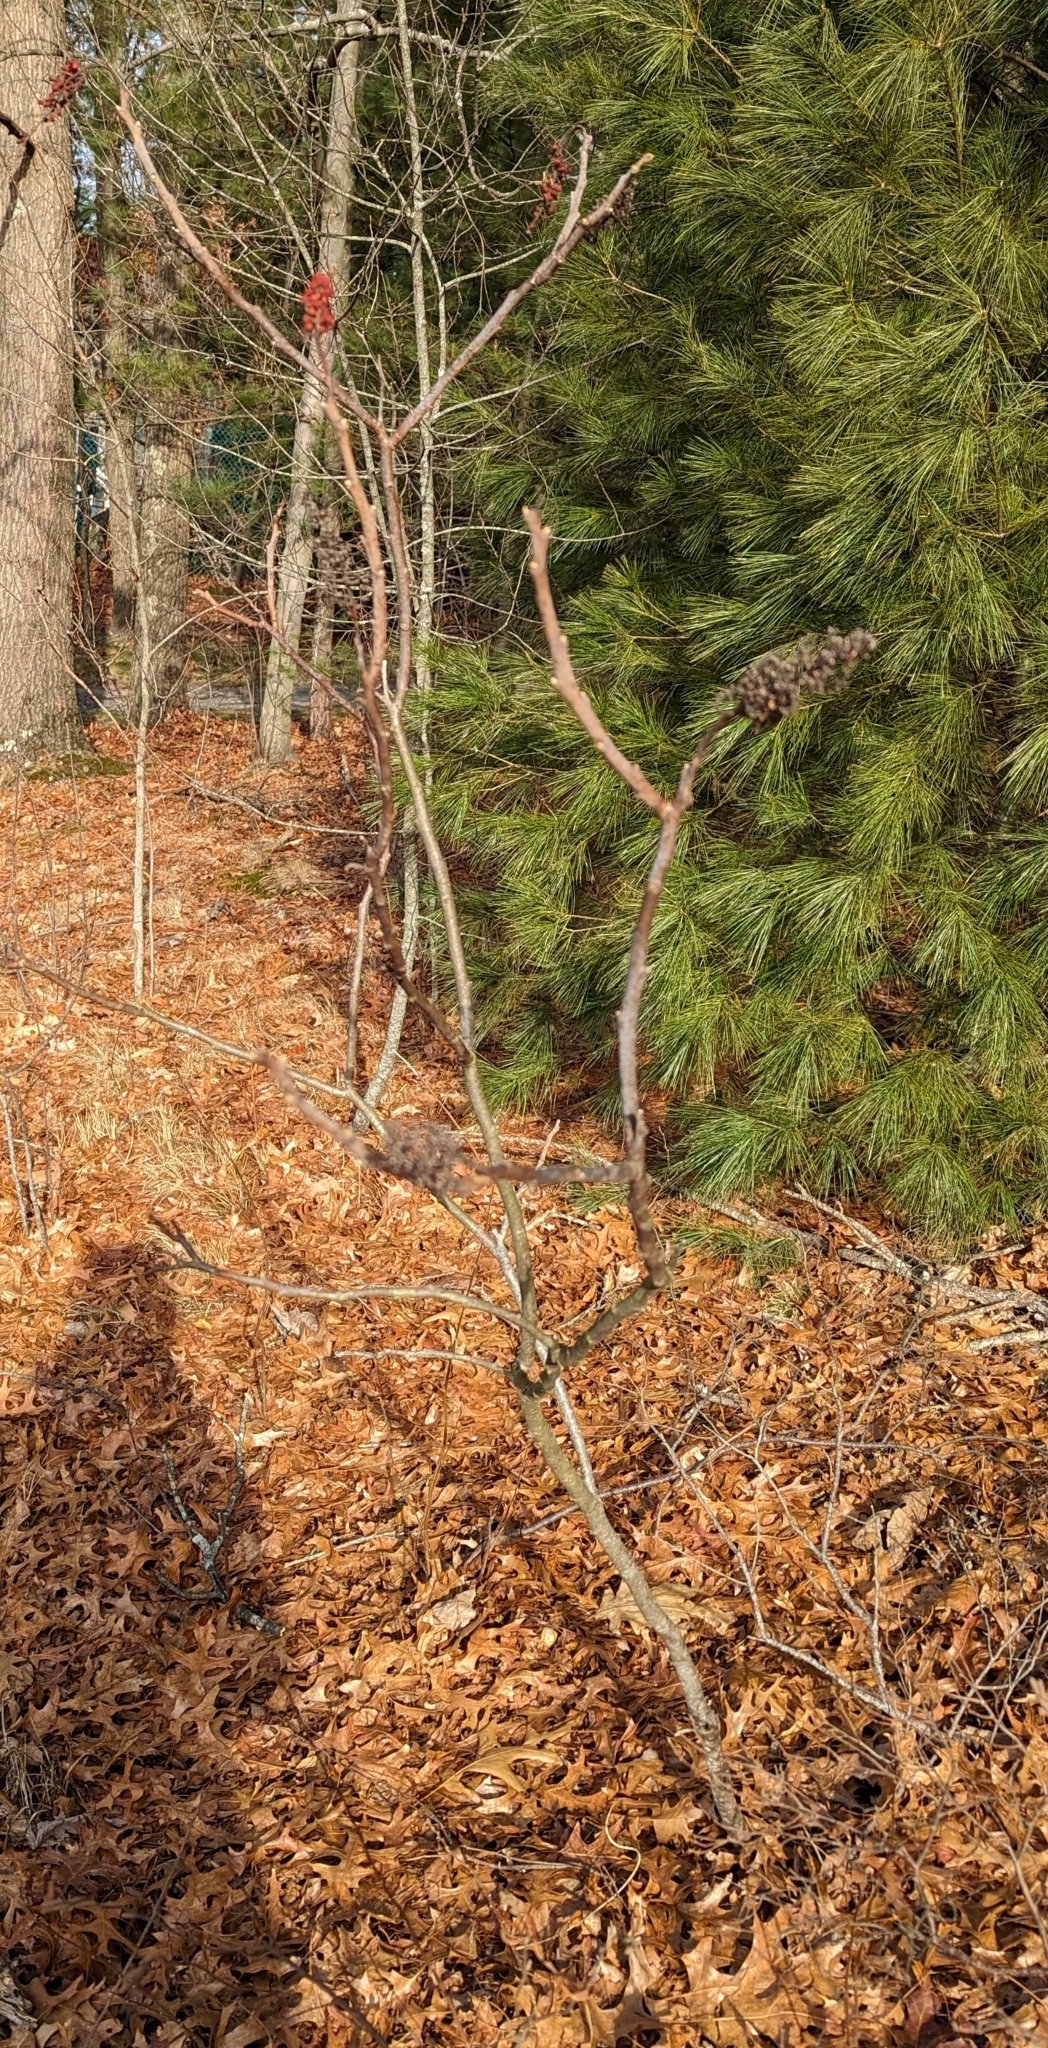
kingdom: Plantae
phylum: Tracheophyta
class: Magnoliopsida
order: Sapindales
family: Anacardiaceae
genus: Rhus
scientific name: Rhus glabra
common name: Scarlet sumac
